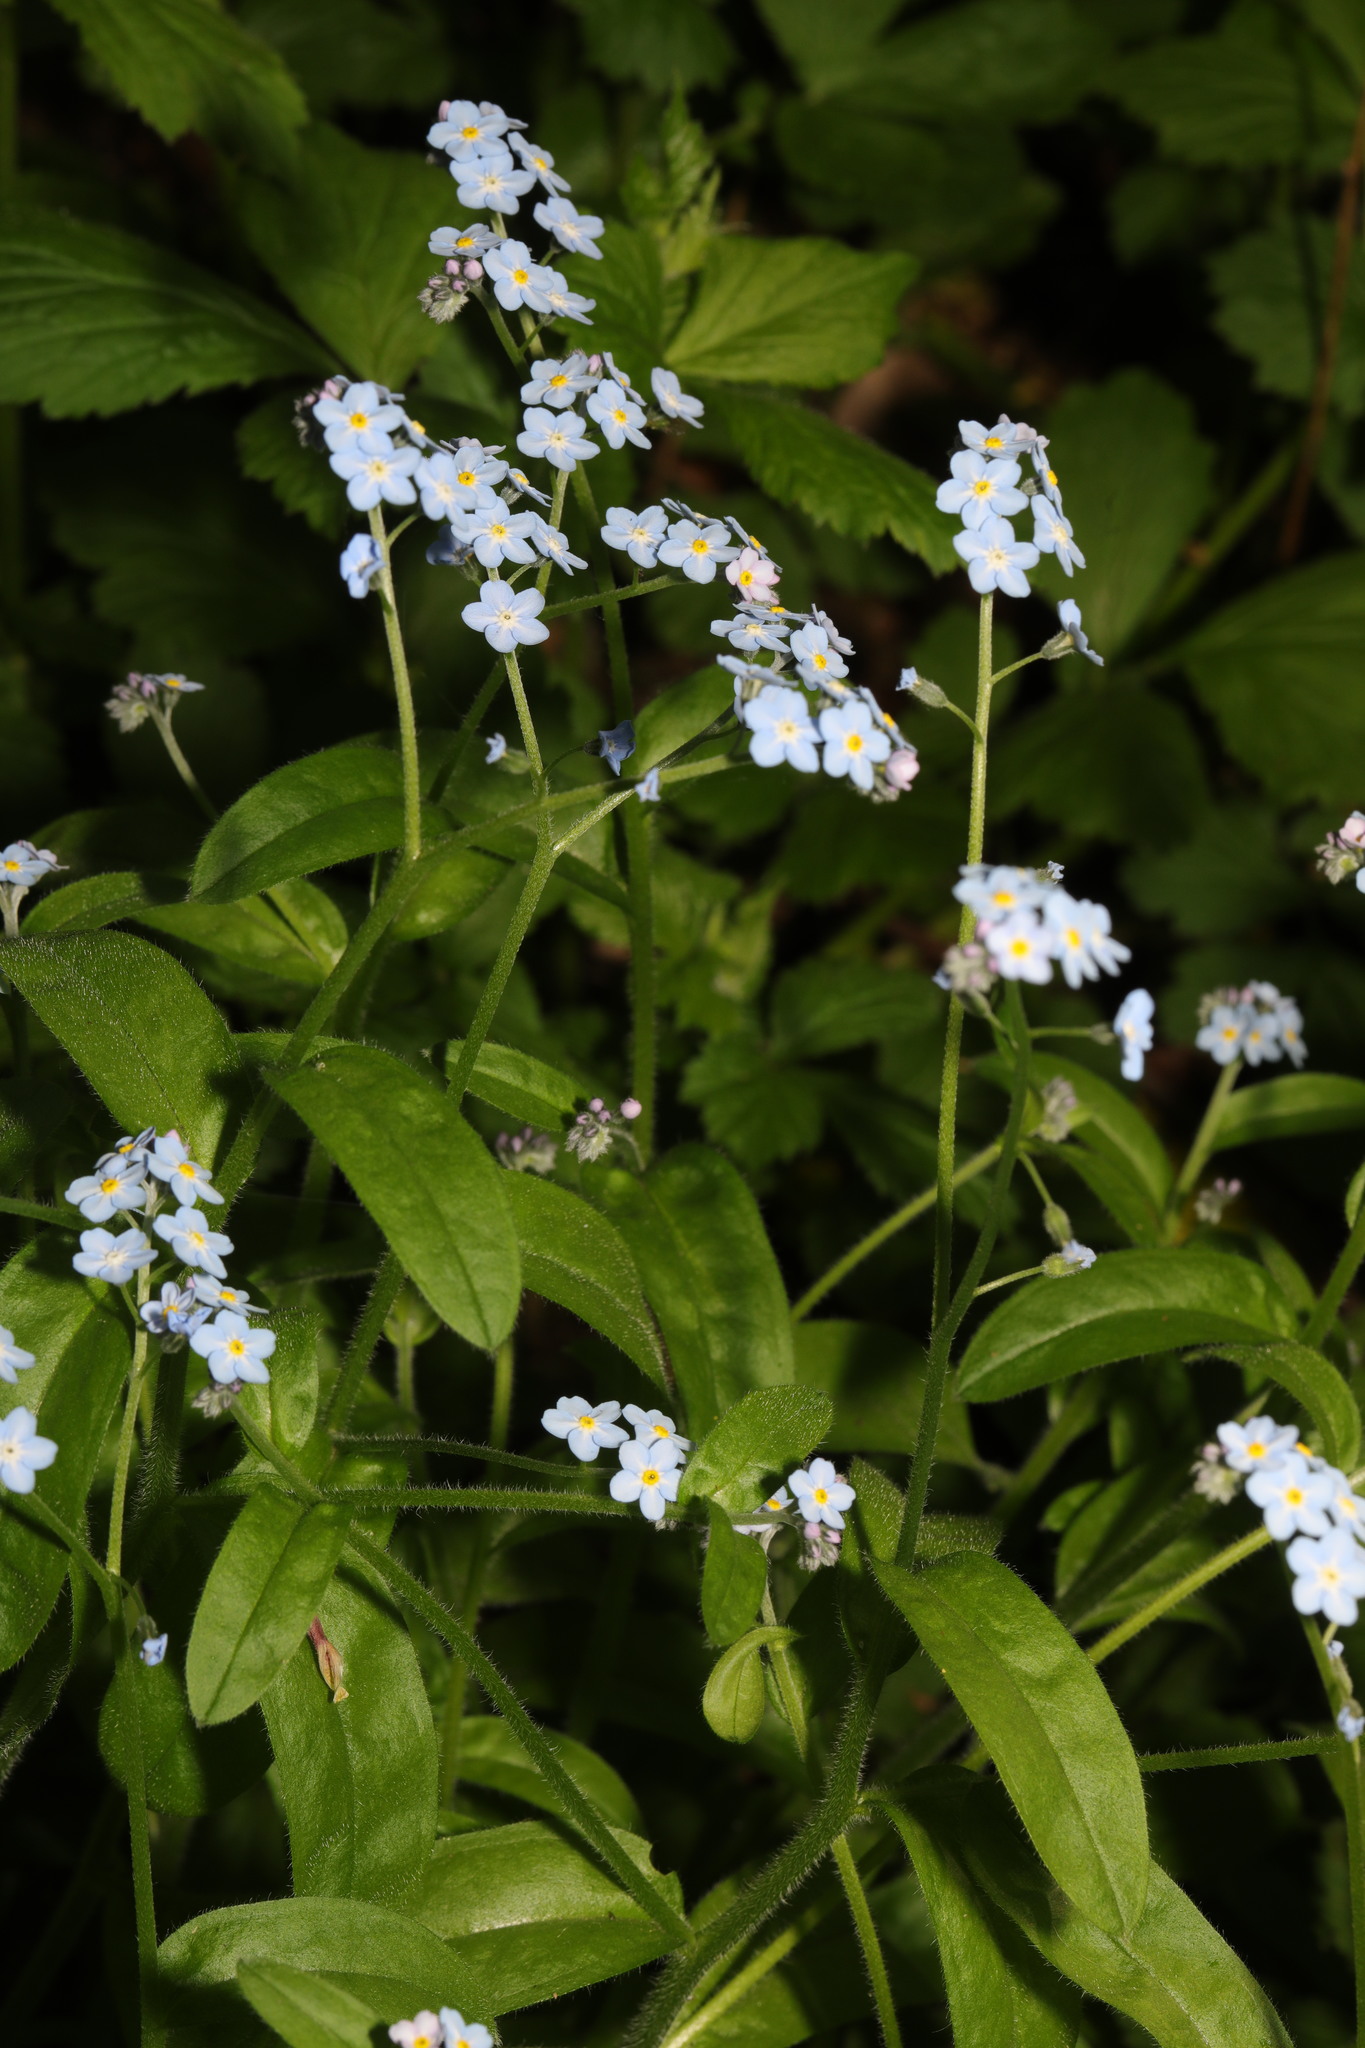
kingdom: Plantae
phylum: Tracheophyta
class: Magnoliopsida
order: Boraginales
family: Boraginaceae
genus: Myosotis
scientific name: Myosotis sylvatica
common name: Wood forget-me-not
